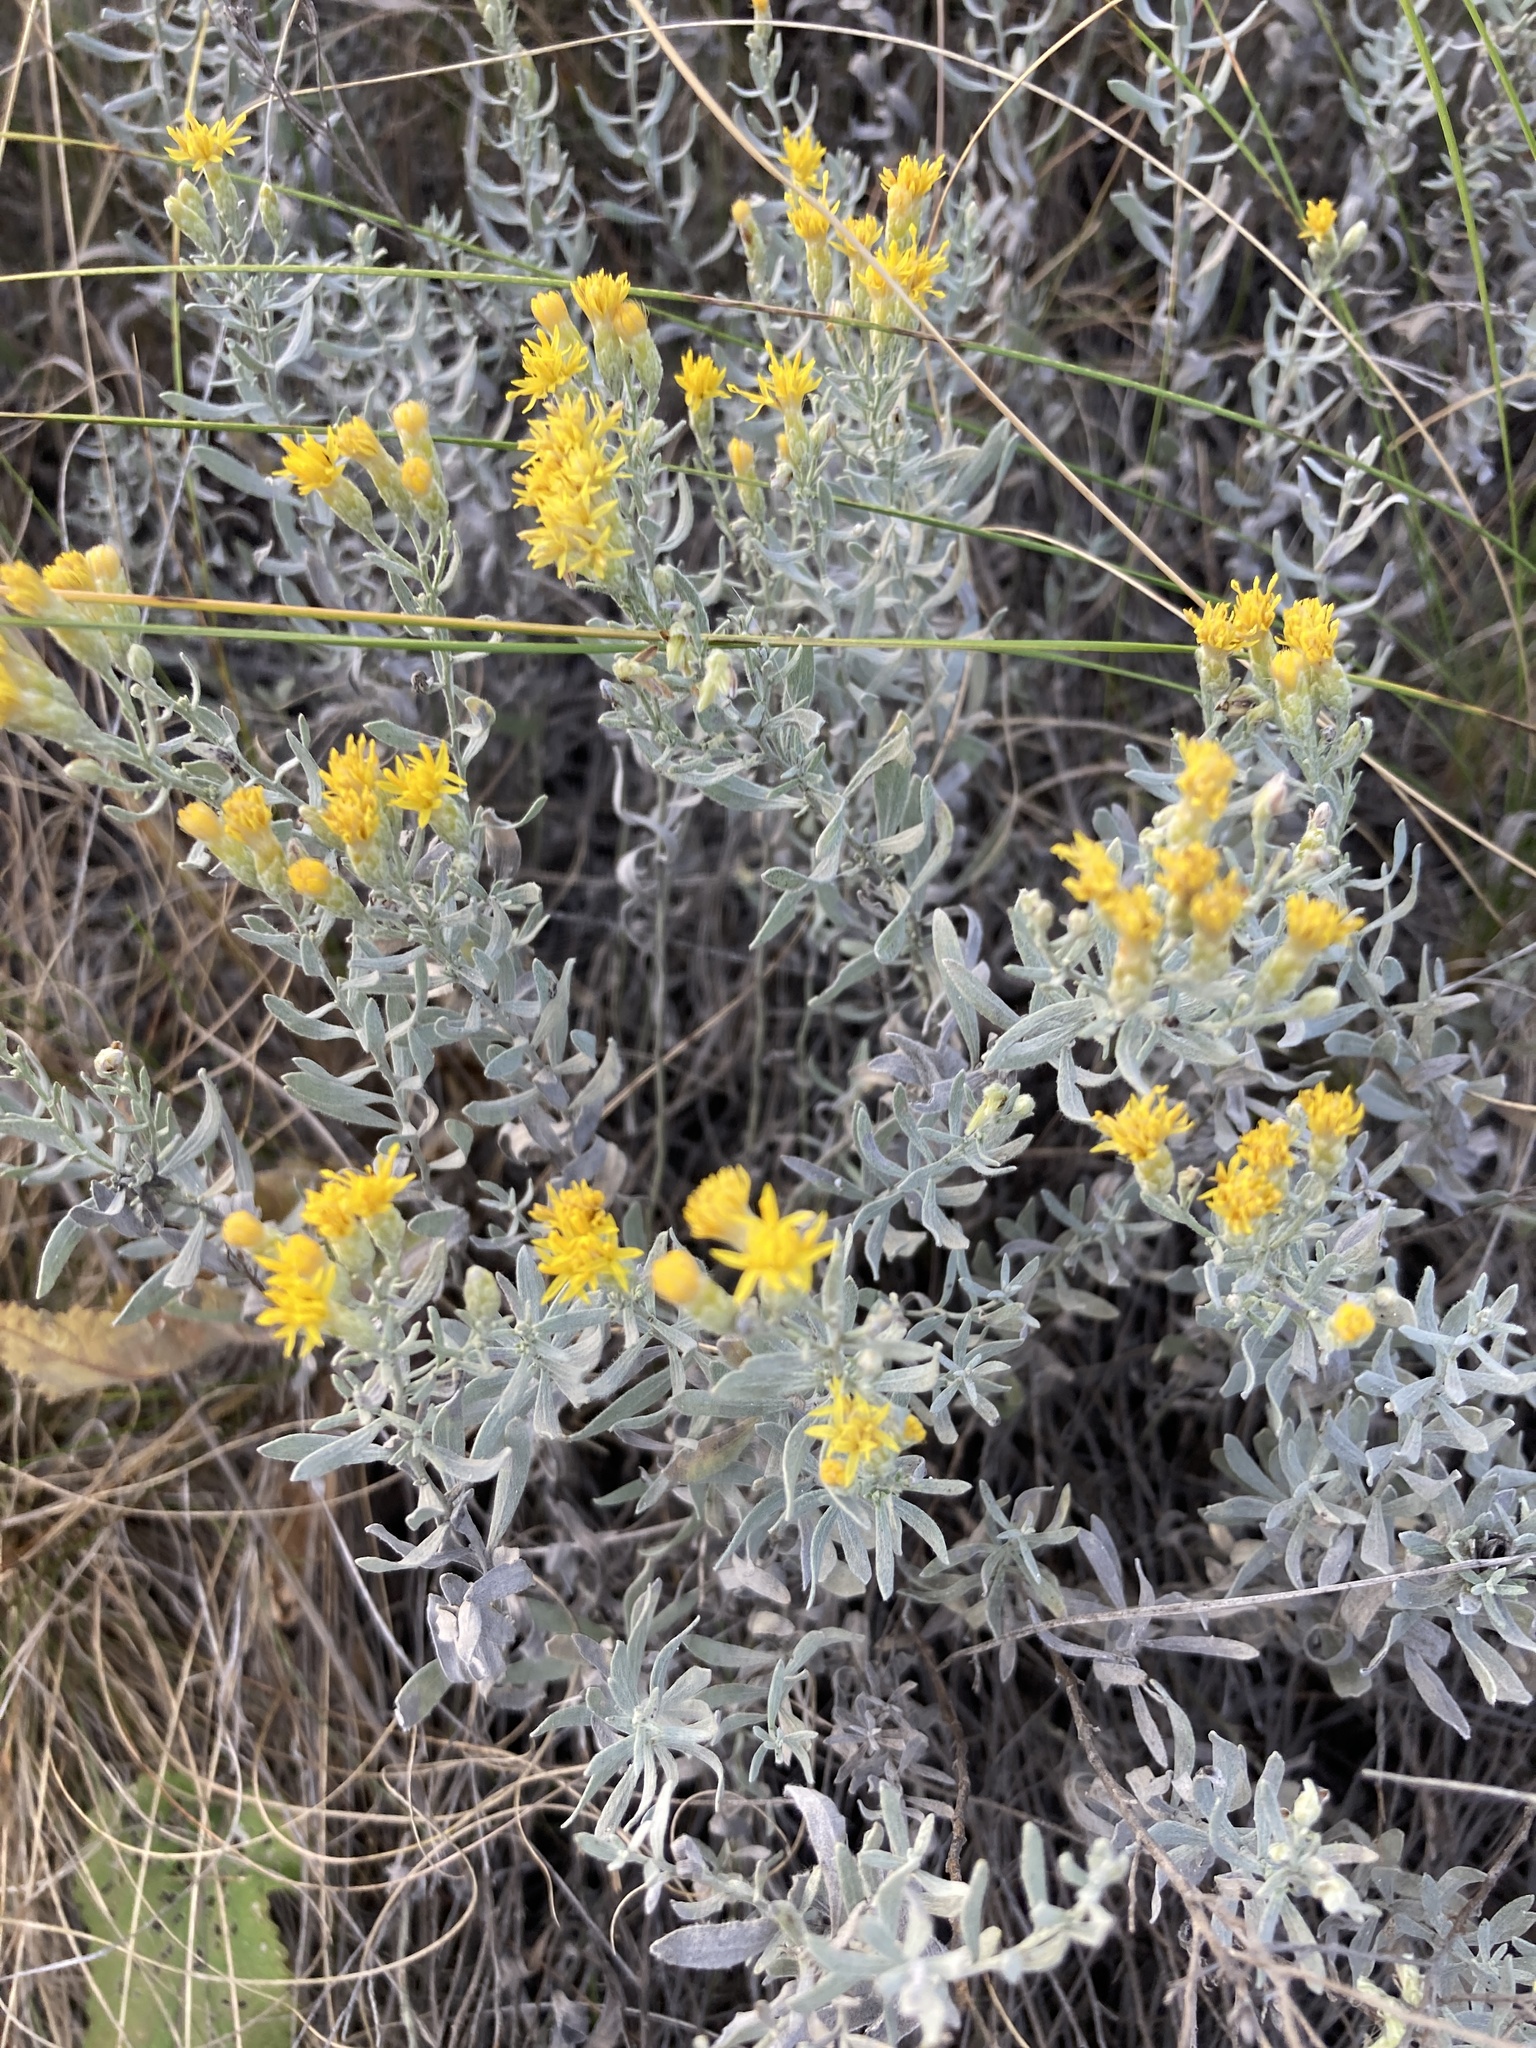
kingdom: Plantae
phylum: Tracheophyta
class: Magnoliopsida
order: Asterales
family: Asteraceae
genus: Galatella
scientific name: Galatella villosa
